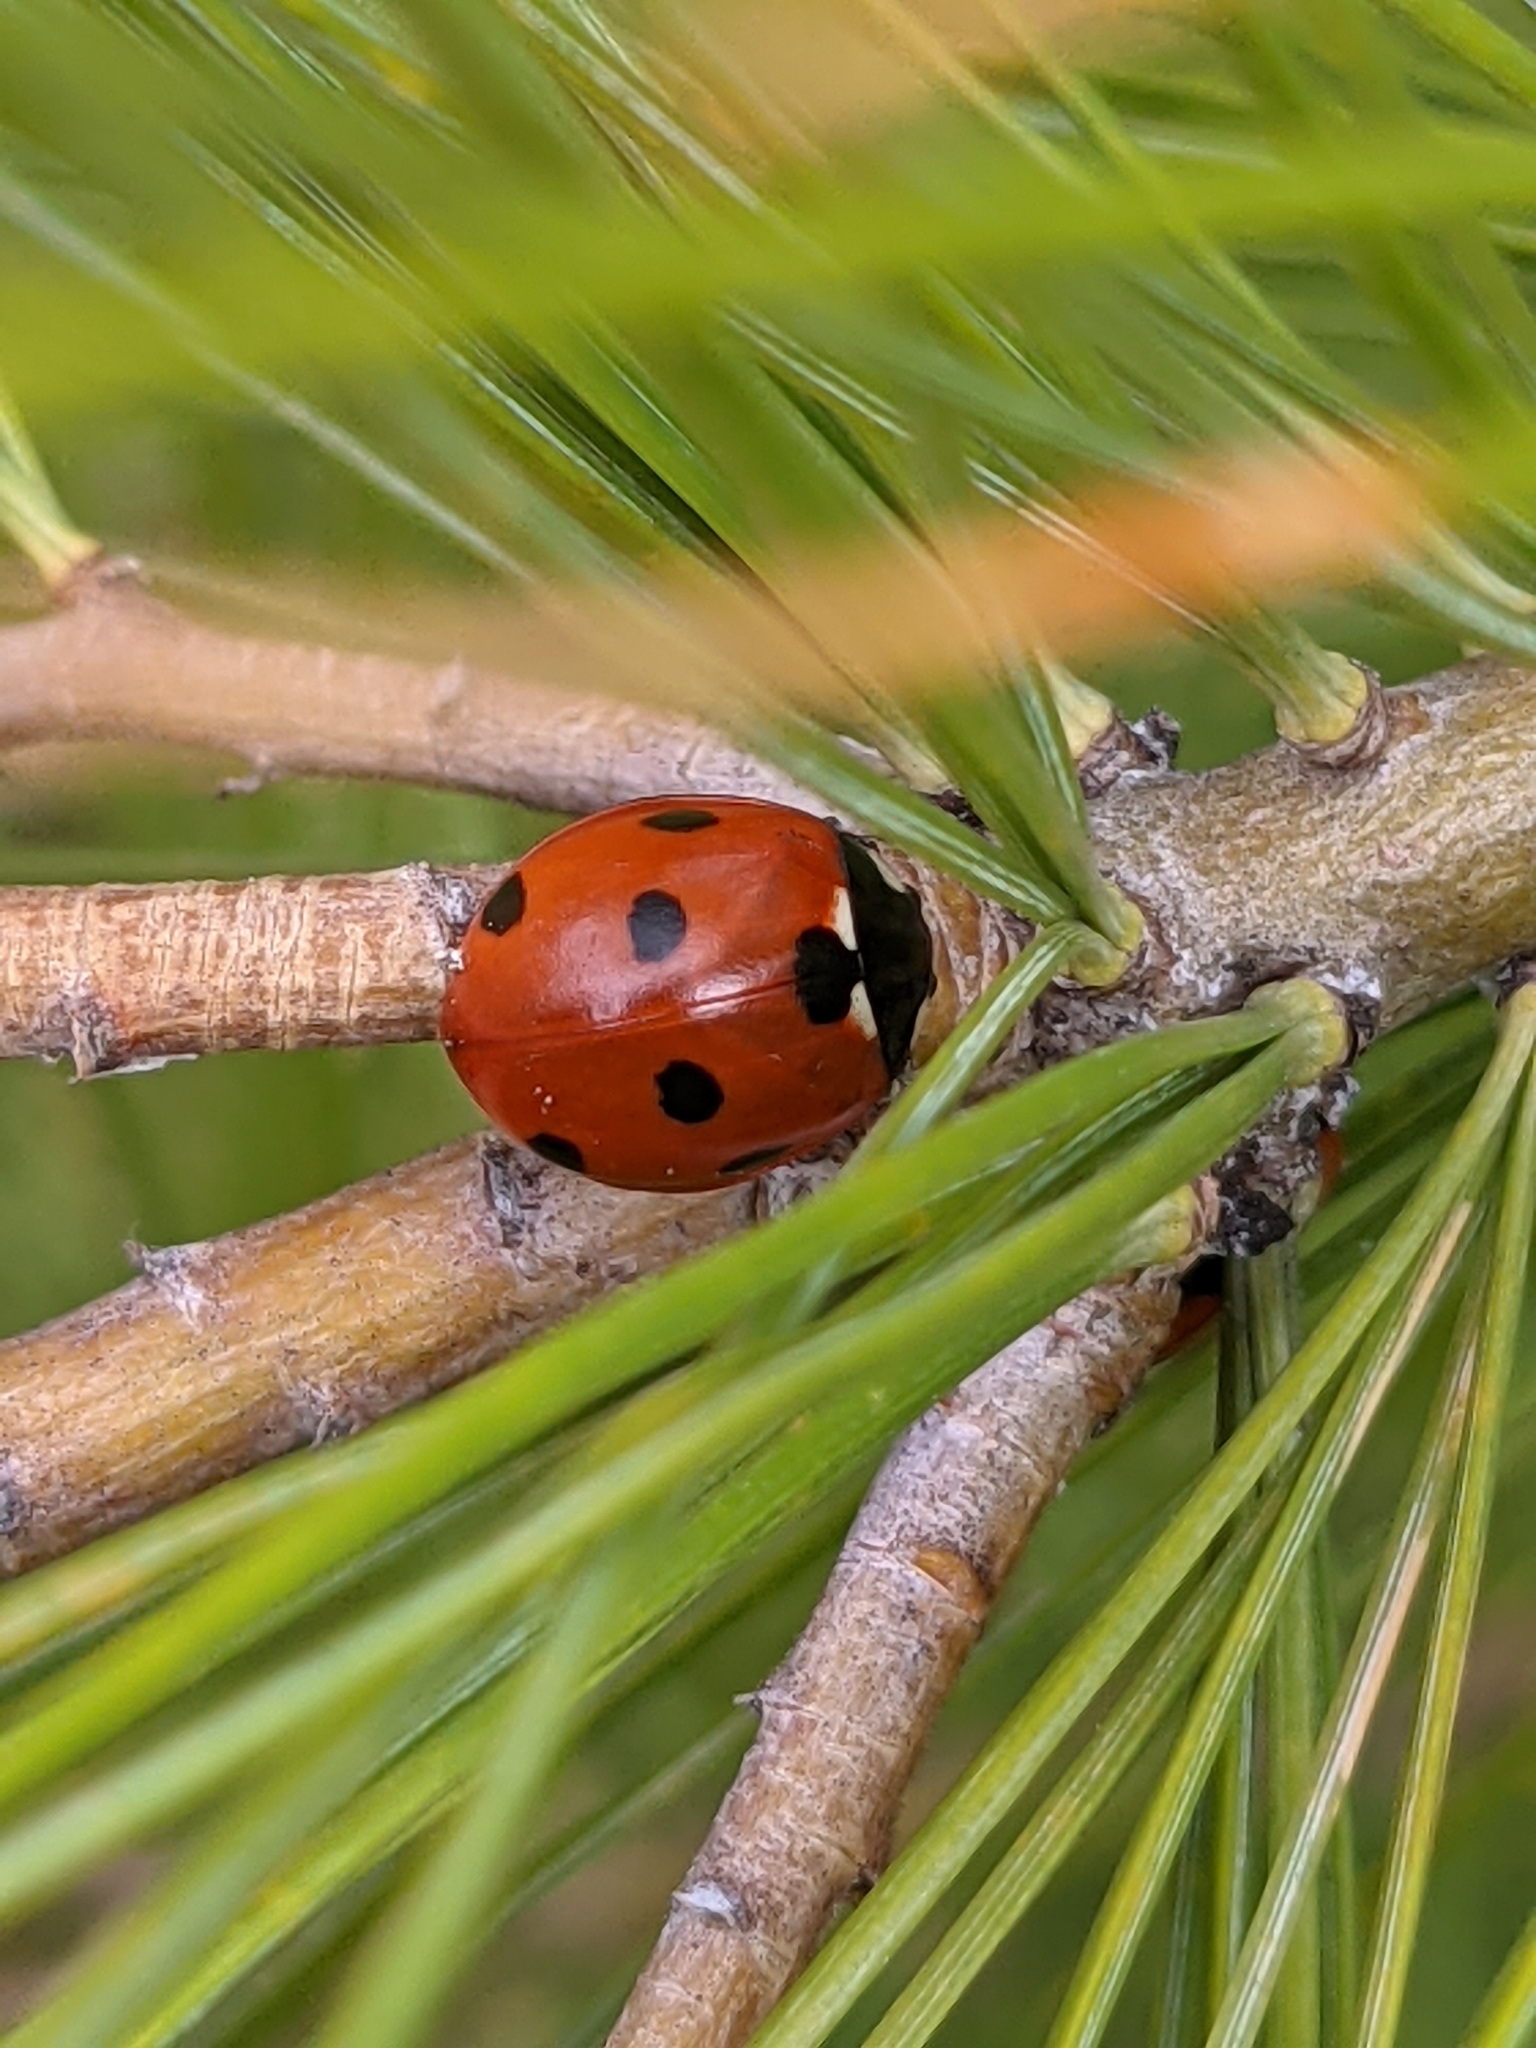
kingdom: Animalia
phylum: Arthropoda
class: Insecta
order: Coleoptera
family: Coccinellidae
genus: Coccinella
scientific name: Coccinella septempunctata
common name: Sevenspotted lady beetle
